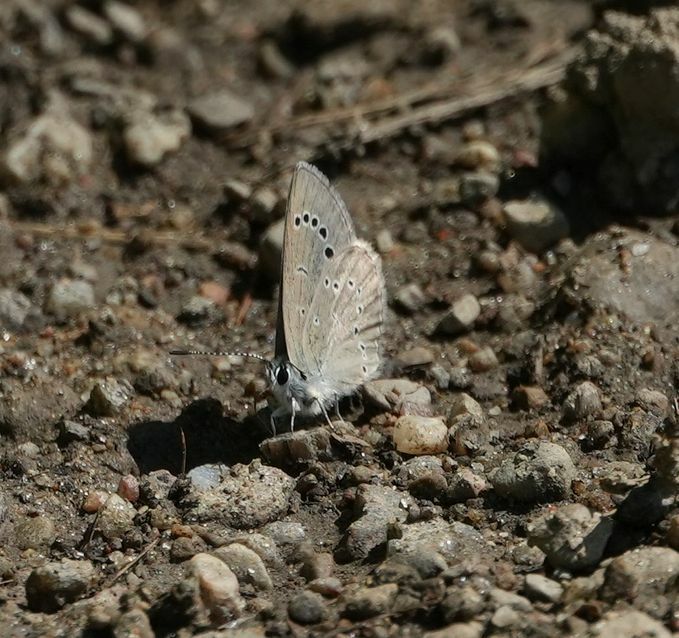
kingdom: Animalia
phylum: Arthropoda
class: Insecta
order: Lepidoptera
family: Lycaenidae
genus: Glaucopsyche
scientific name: Glaucopsyche lygdamus
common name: Silvery blue
